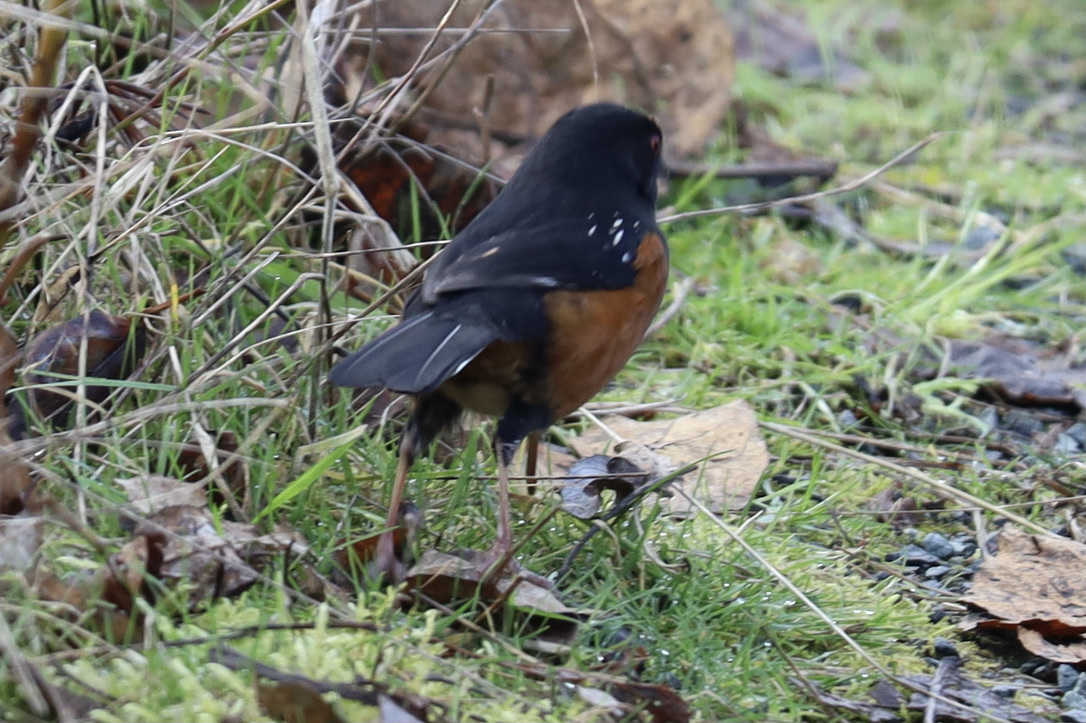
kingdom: Animalia
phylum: Chordata
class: Aves
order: Passeriformes
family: Passerellidae
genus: Pipilo
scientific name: Pipilo maculatus
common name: Spotted towhee
